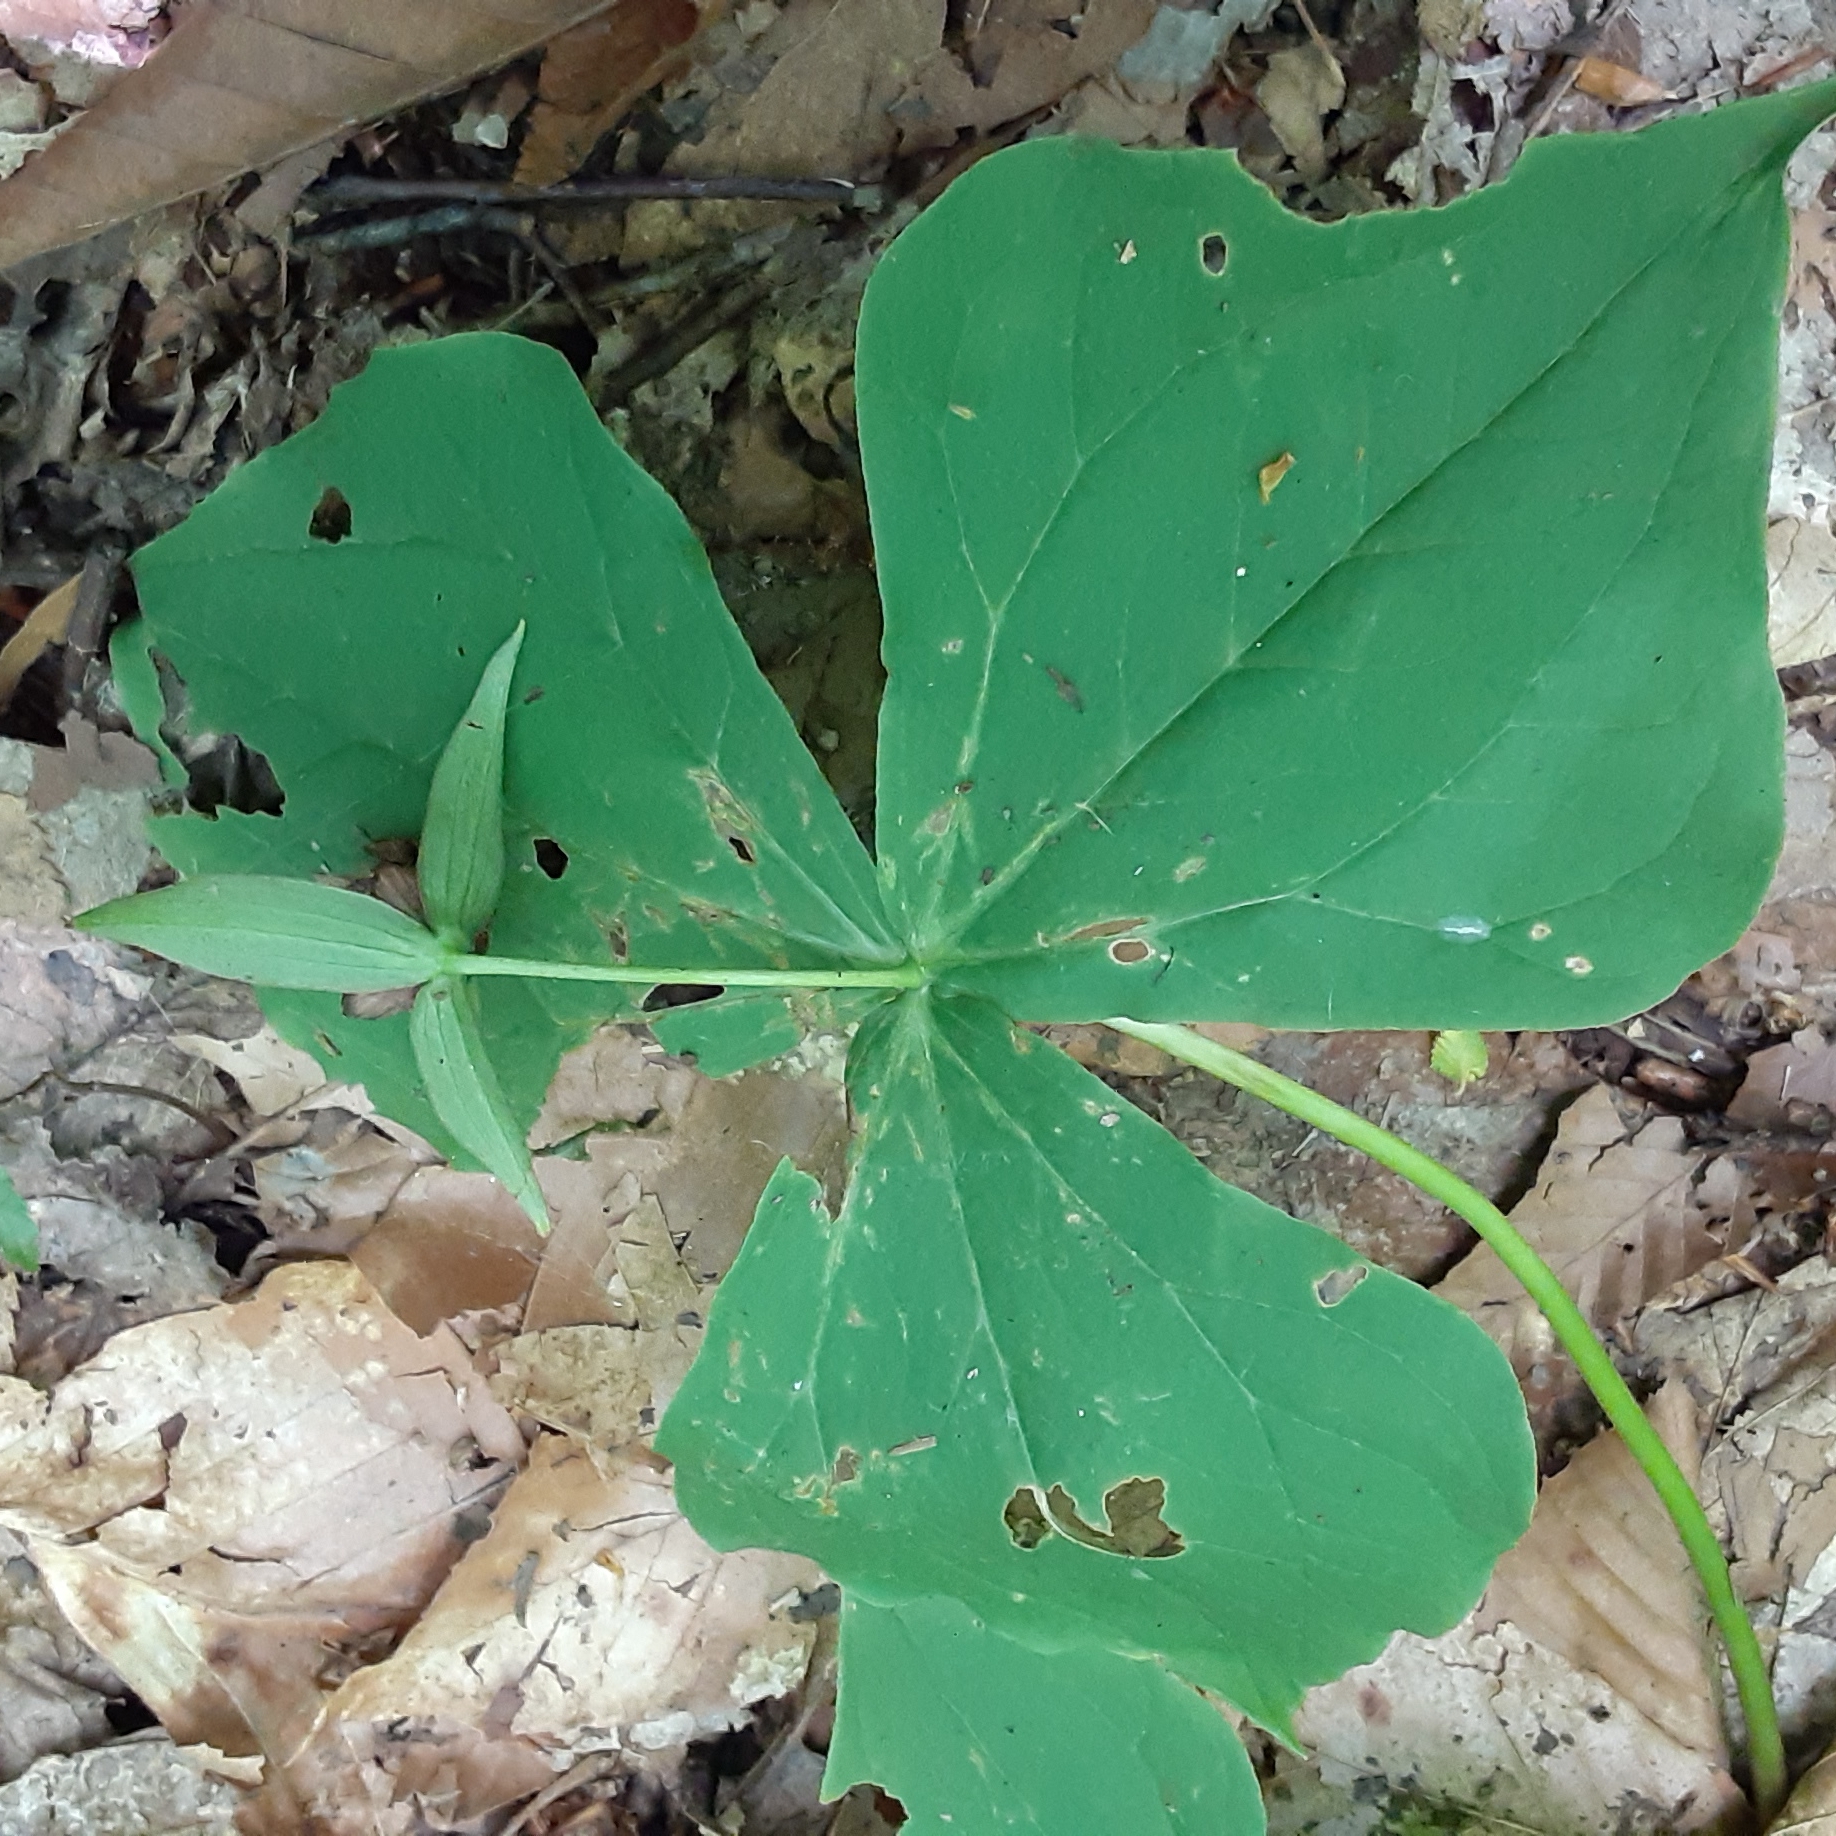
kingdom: Plantae
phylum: Tracheophyta
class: Liliopsida
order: Liliales
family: Melanthiaceae
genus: Trillium
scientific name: Trillium erectum
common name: Purple trillium
